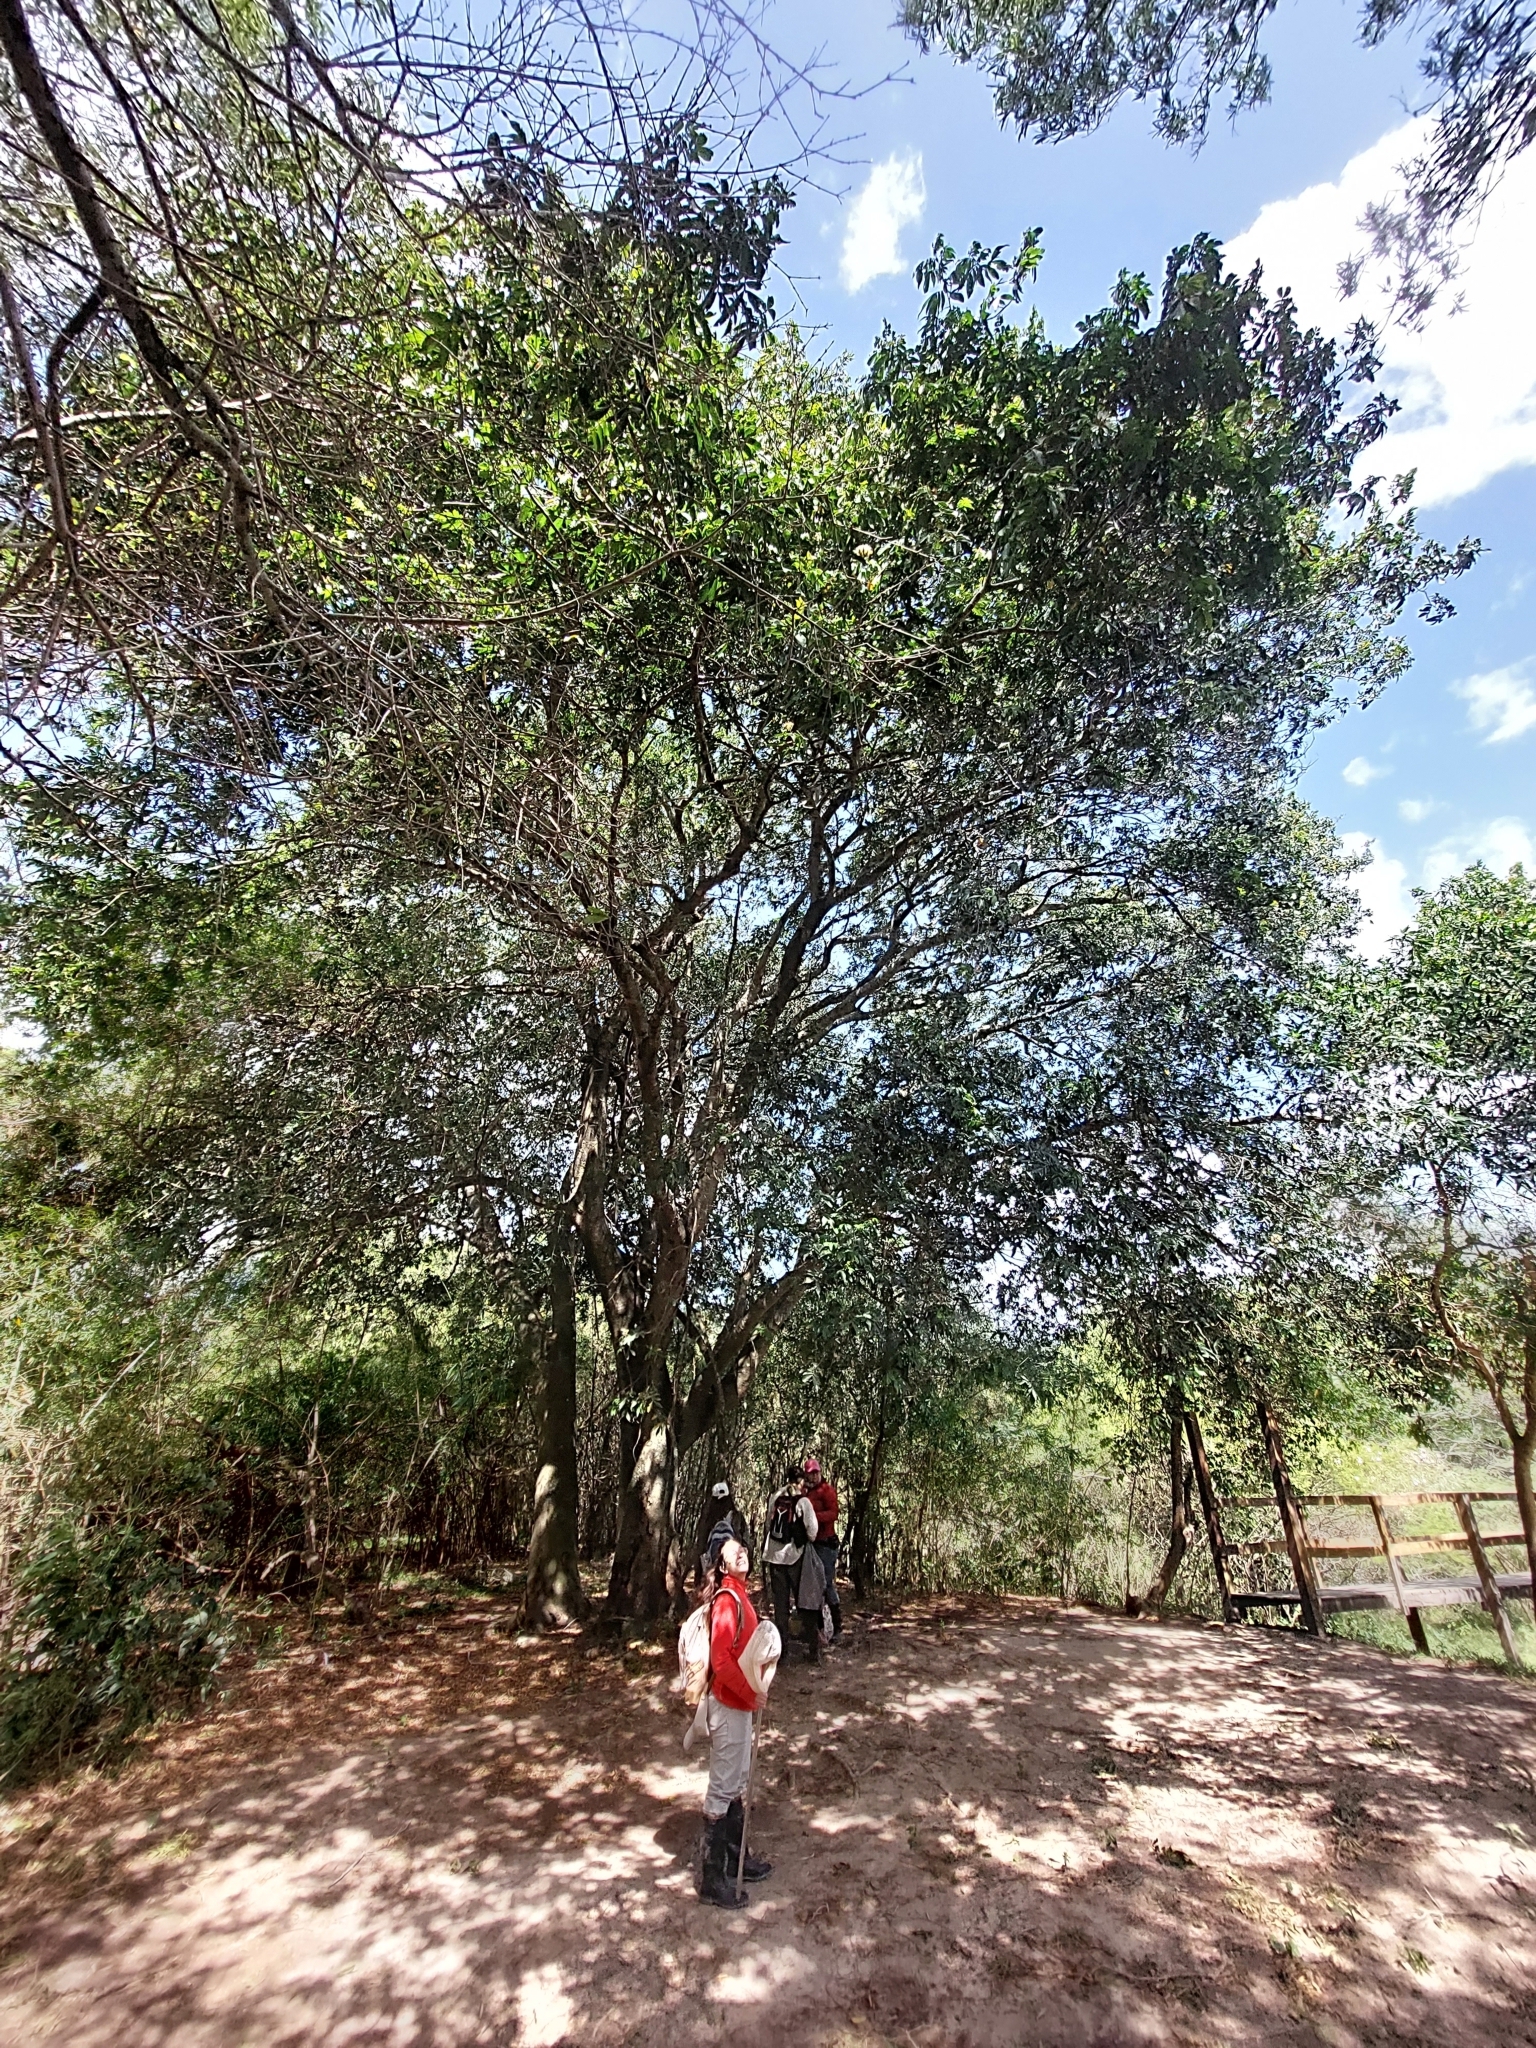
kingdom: Plantae
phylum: Tracheophyta
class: Magnoliopsida
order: Fabales
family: Fabaceae
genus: Inga
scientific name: Inga uraguensis
